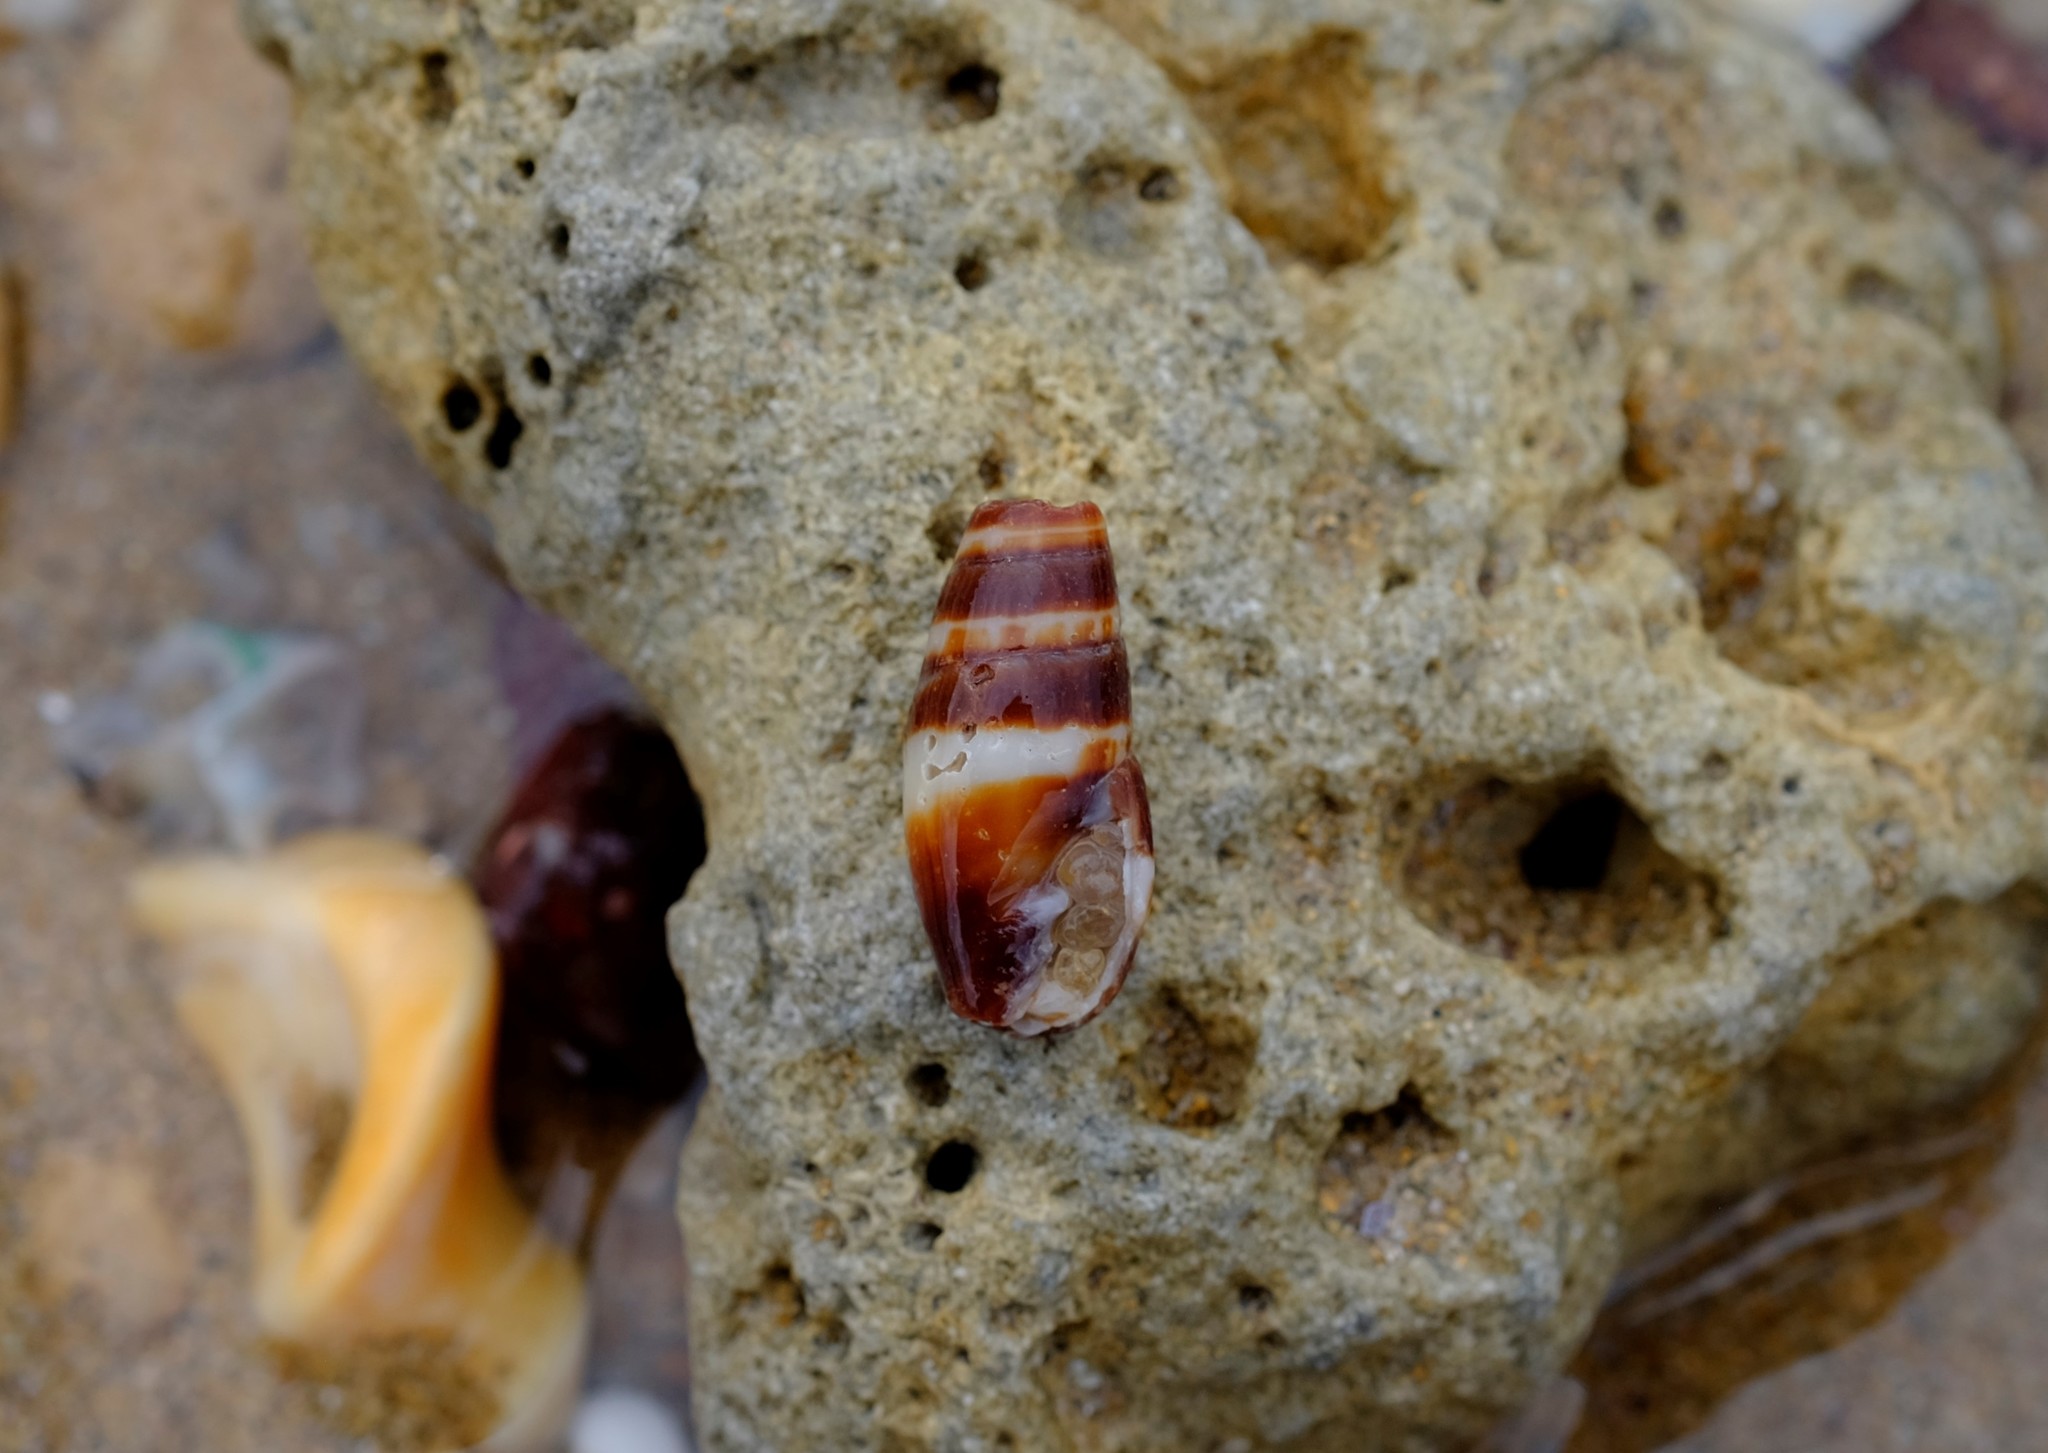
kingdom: Animalia
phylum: Mollusca
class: Gastropoda
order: Neogastropoda
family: Costellariidae
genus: Turriplicifer
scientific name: Turriplicifer australis
